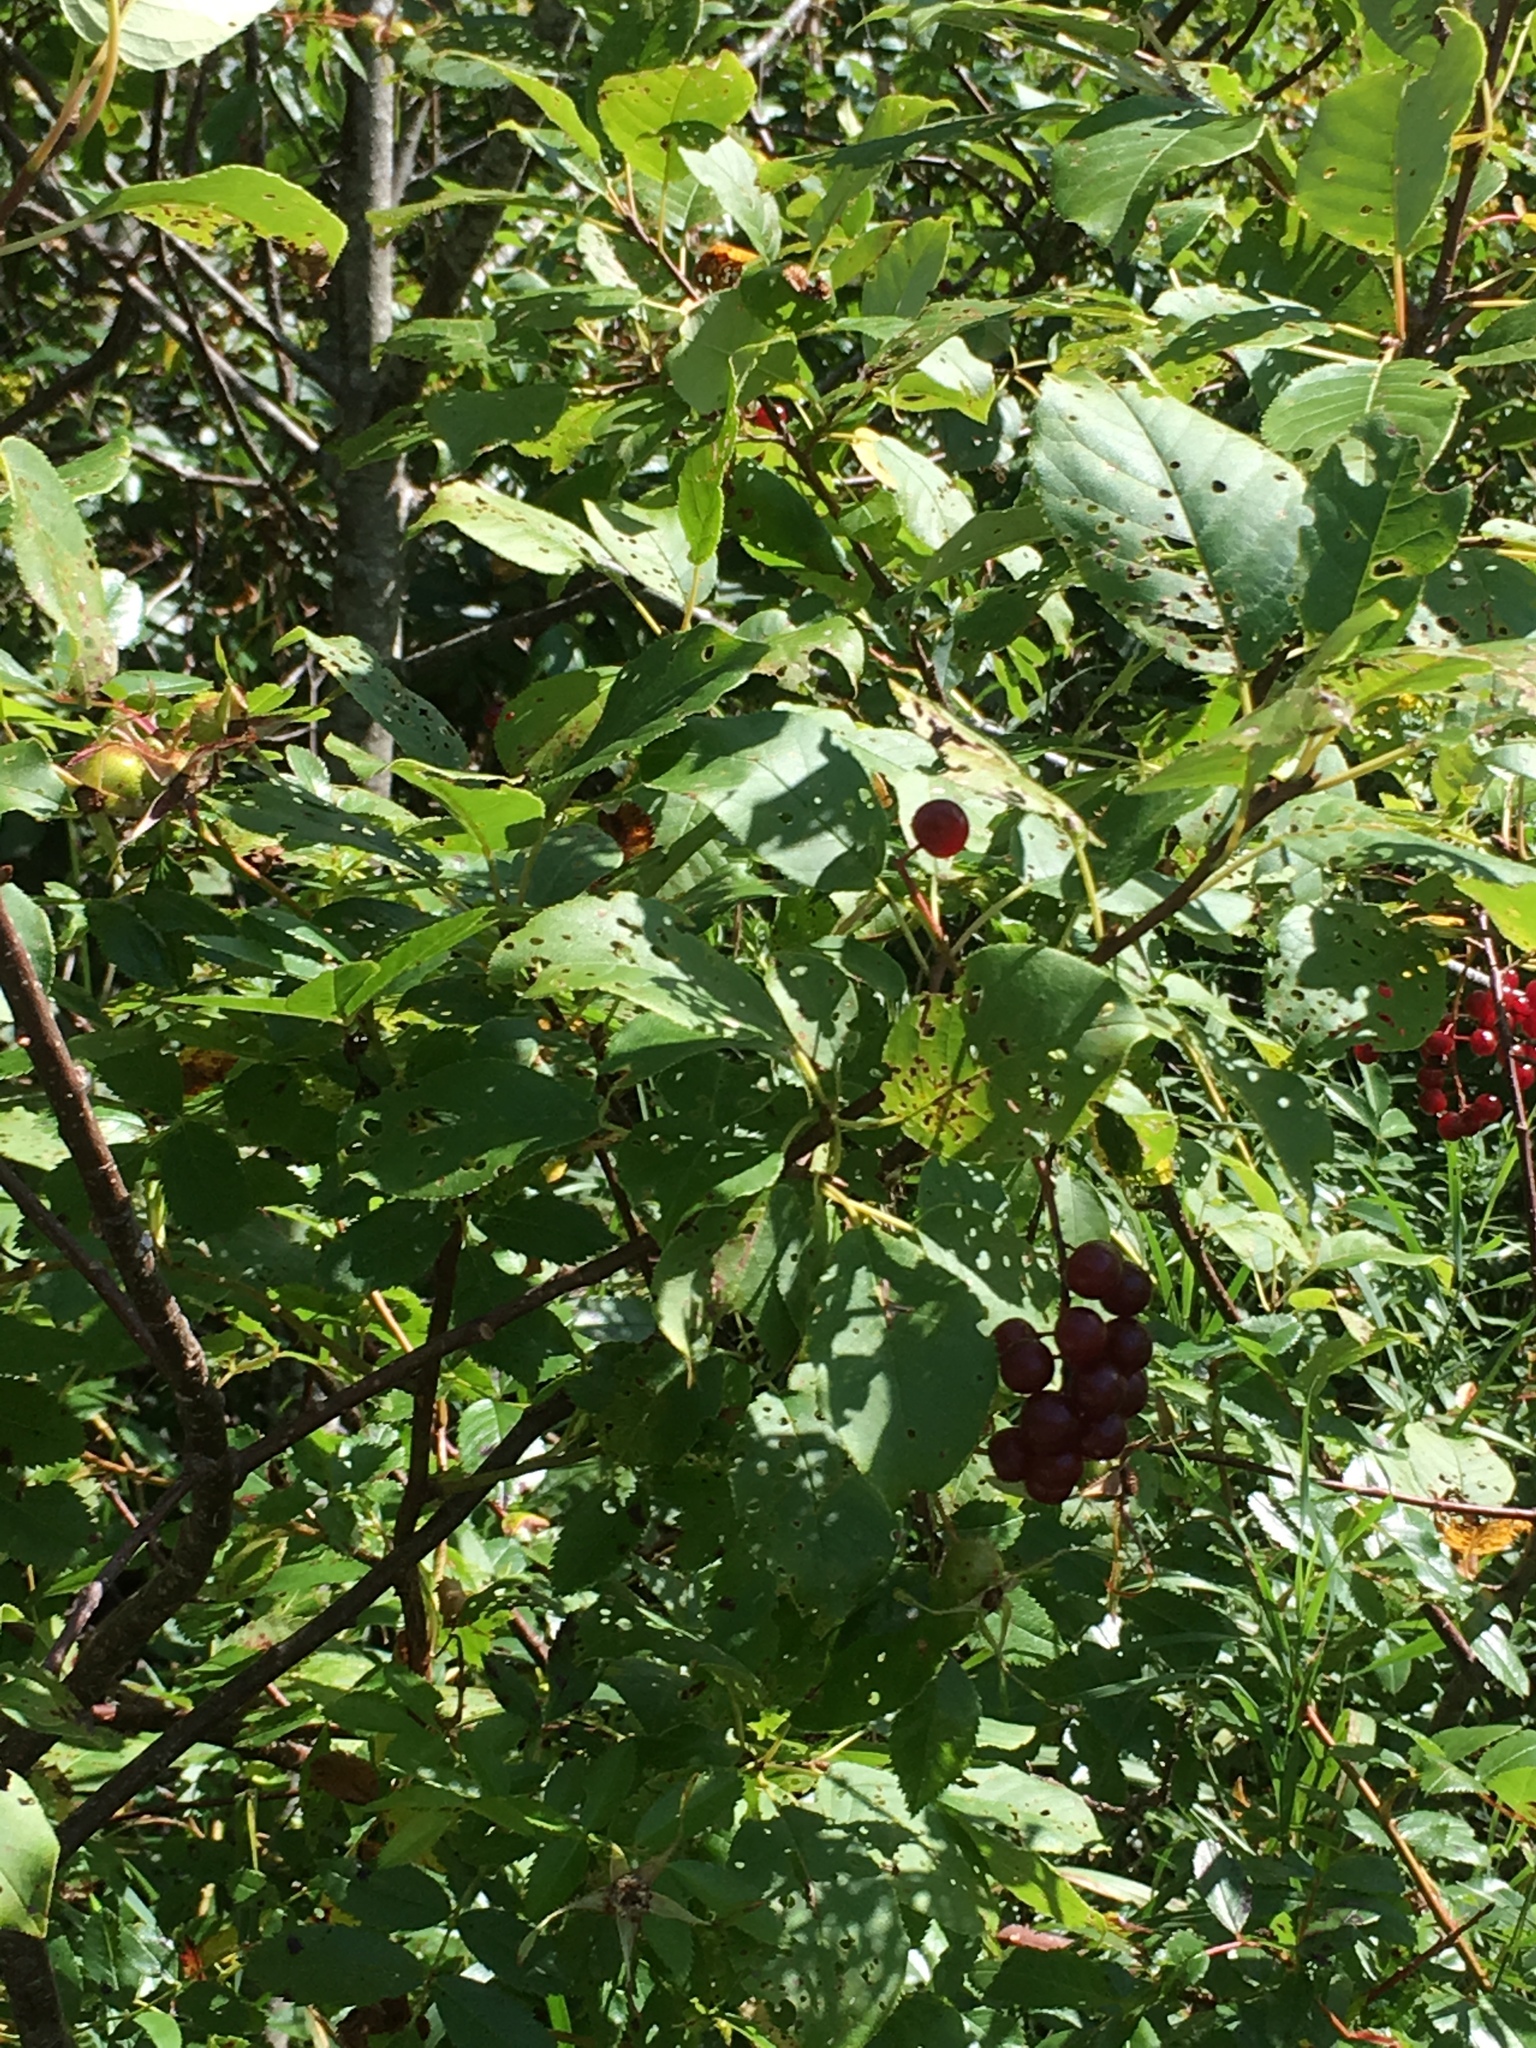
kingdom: Plantae
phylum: Tracheophyta
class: Magnoliopsida
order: Rosales
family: Rosaceae
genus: Prunus
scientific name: Prunus virginiana
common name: Chokecherry
